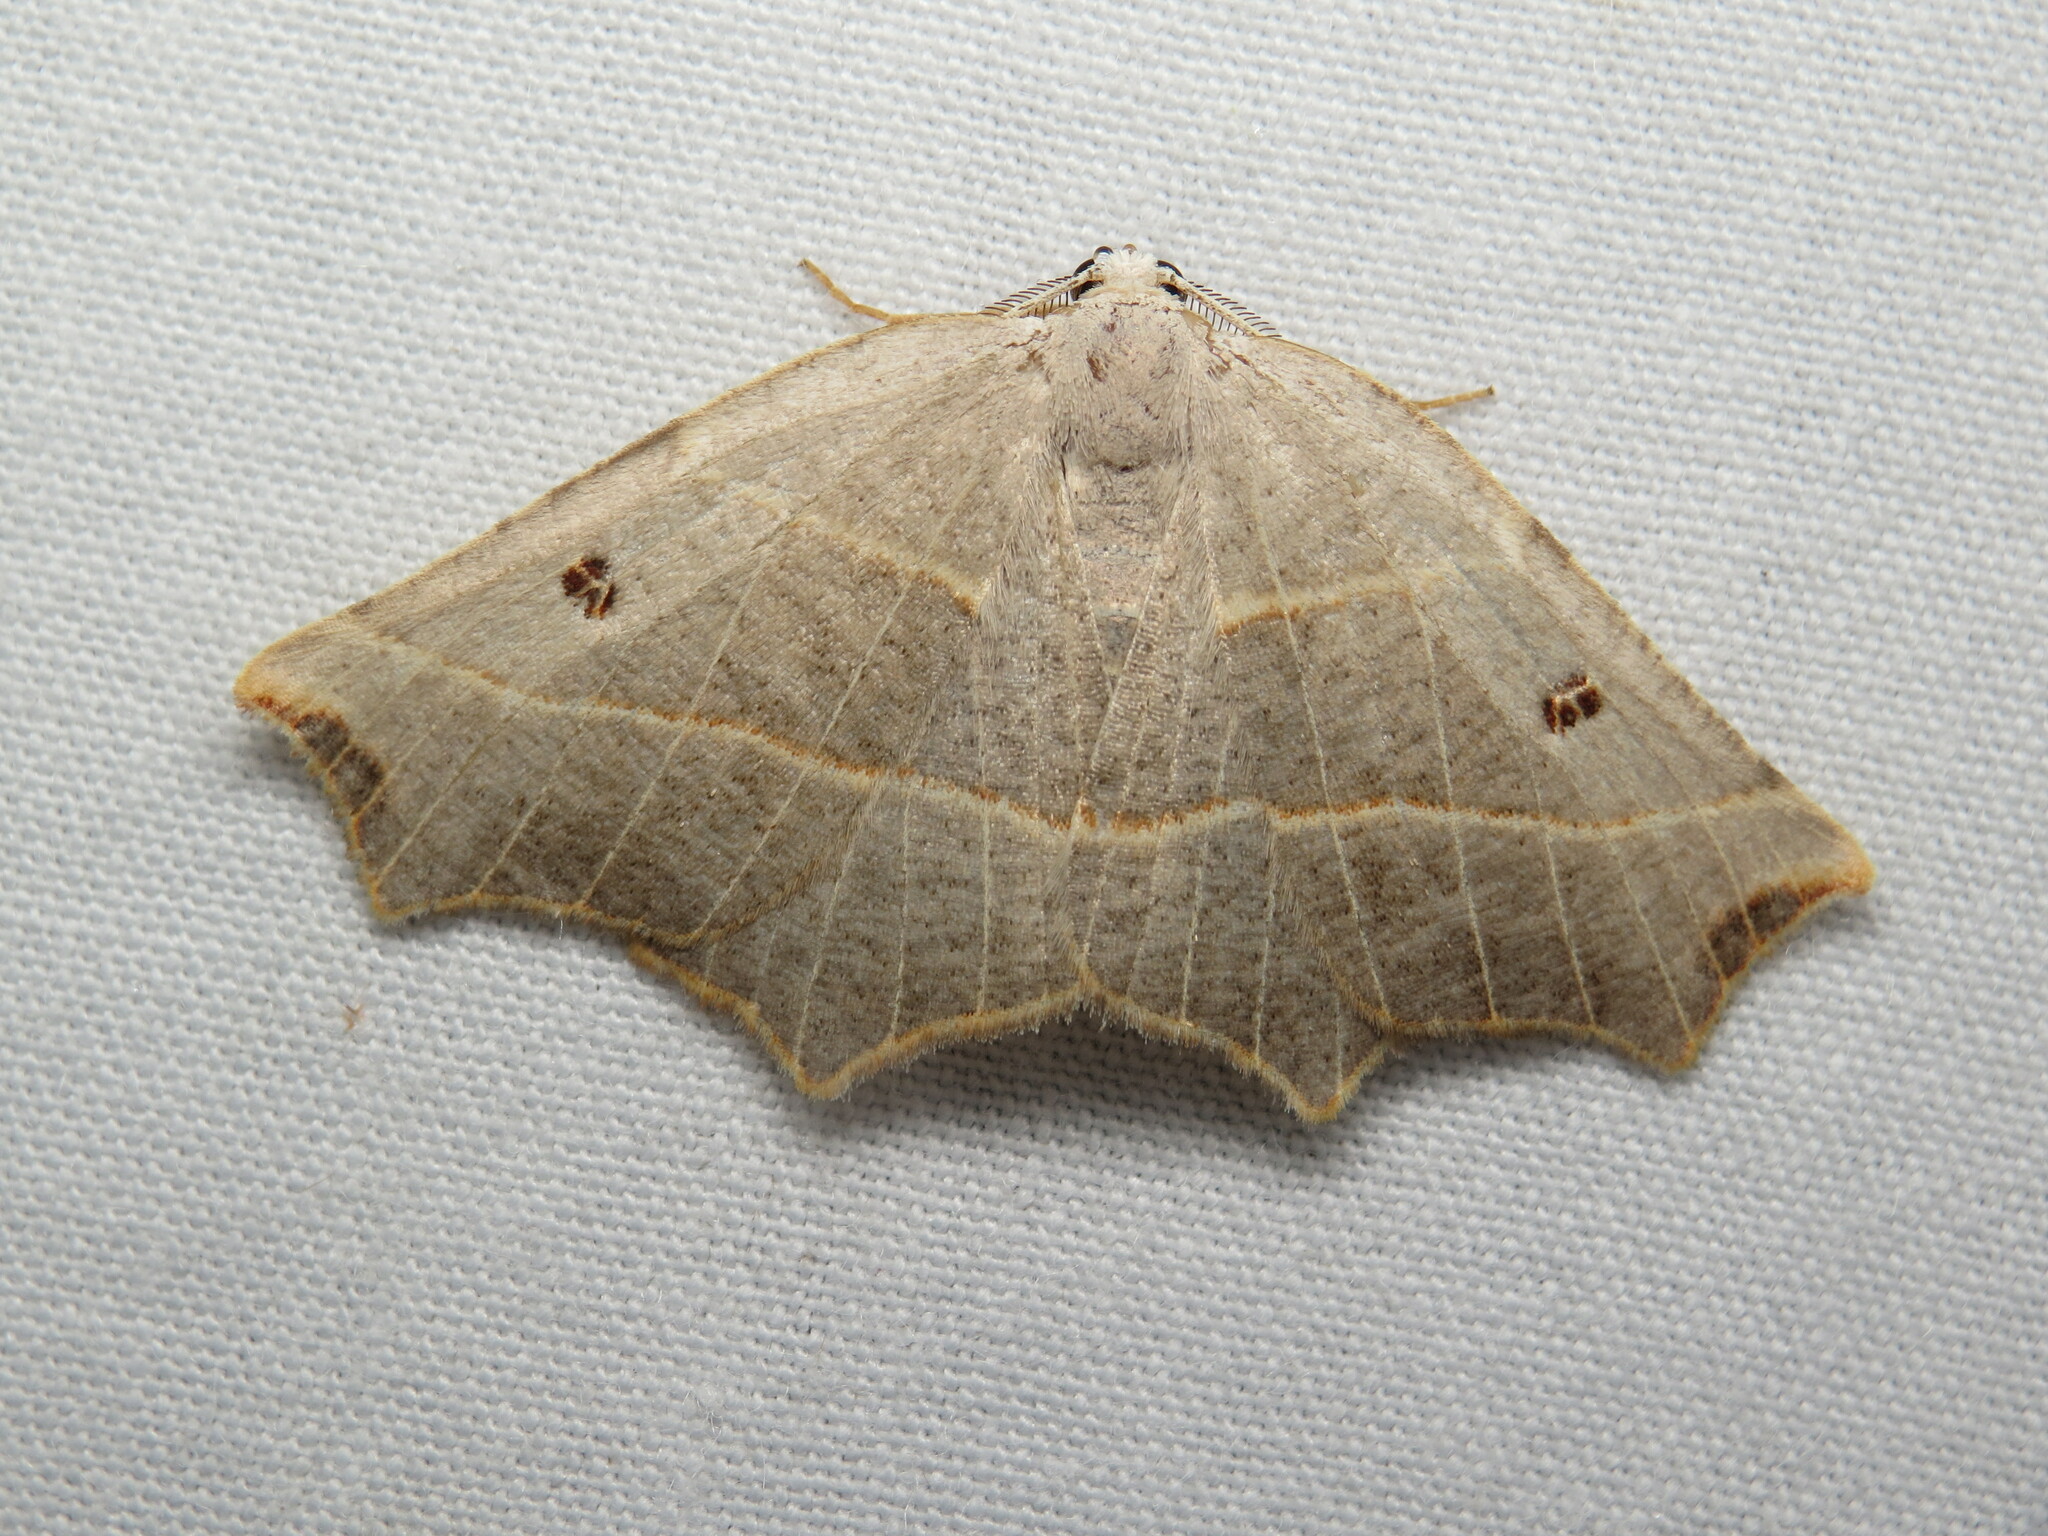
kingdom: Animalia
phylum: Arthropoda
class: Insecta
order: Lepidoptera
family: Geometridae
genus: Metanema
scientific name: Metanema inatomaria
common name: Pale metanema
